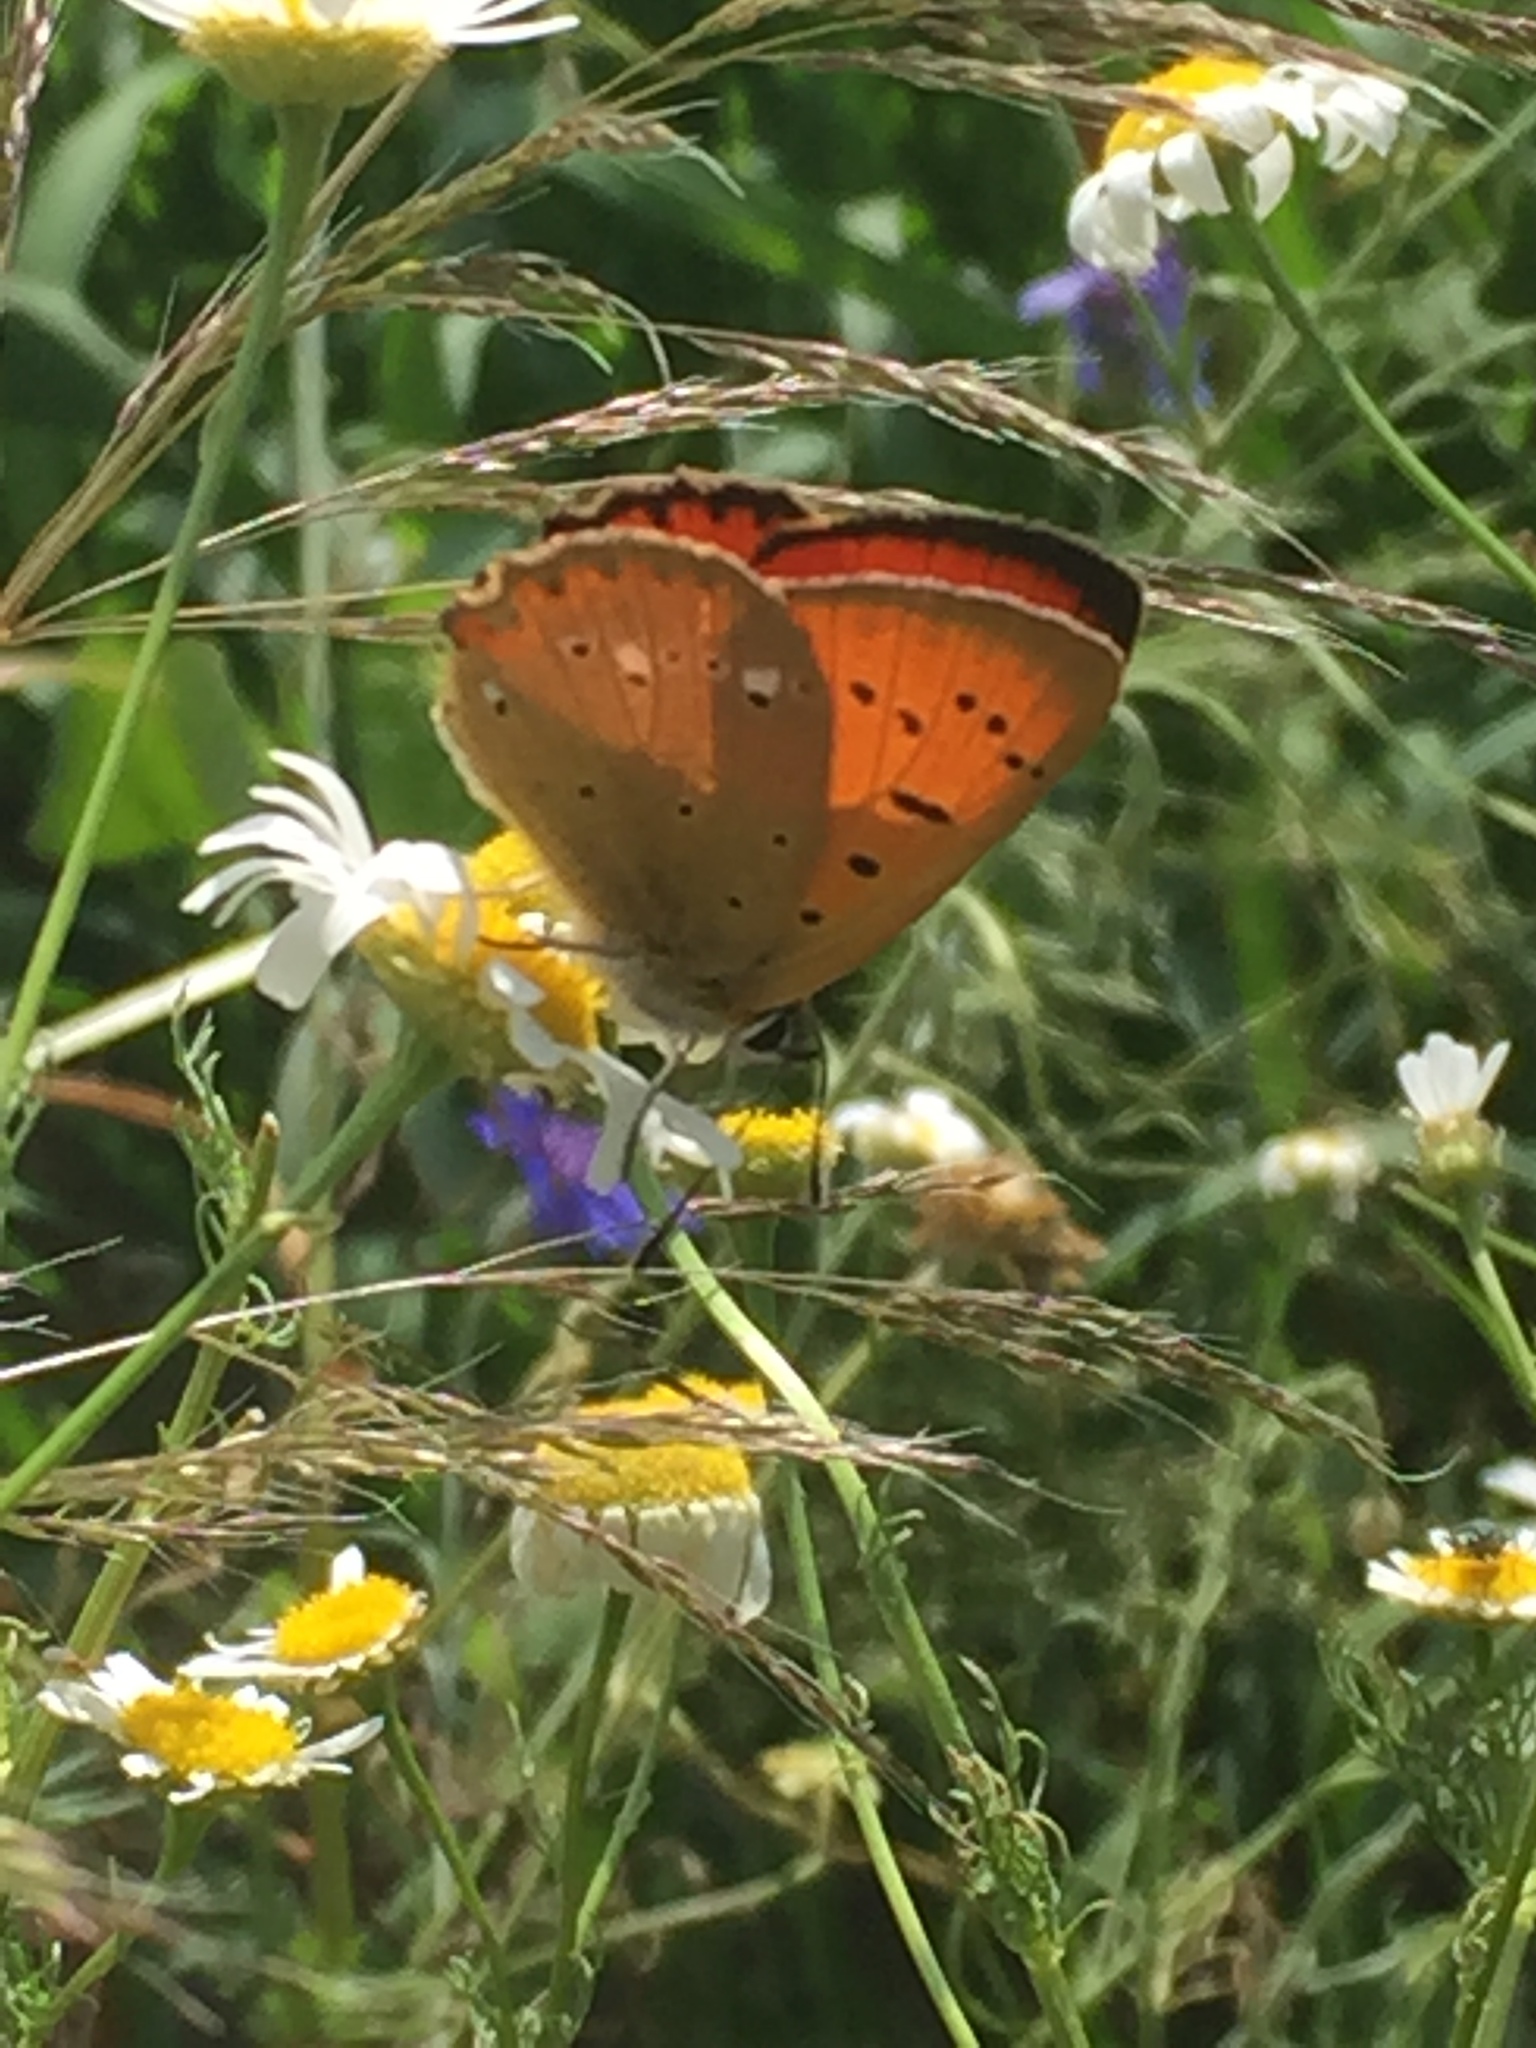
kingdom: Animalia
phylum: Arthropoda
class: Insecta
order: Lepidoptera
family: Lycaenidae
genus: Lycaena
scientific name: Lycaena virgaureae
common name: Scarce copper
